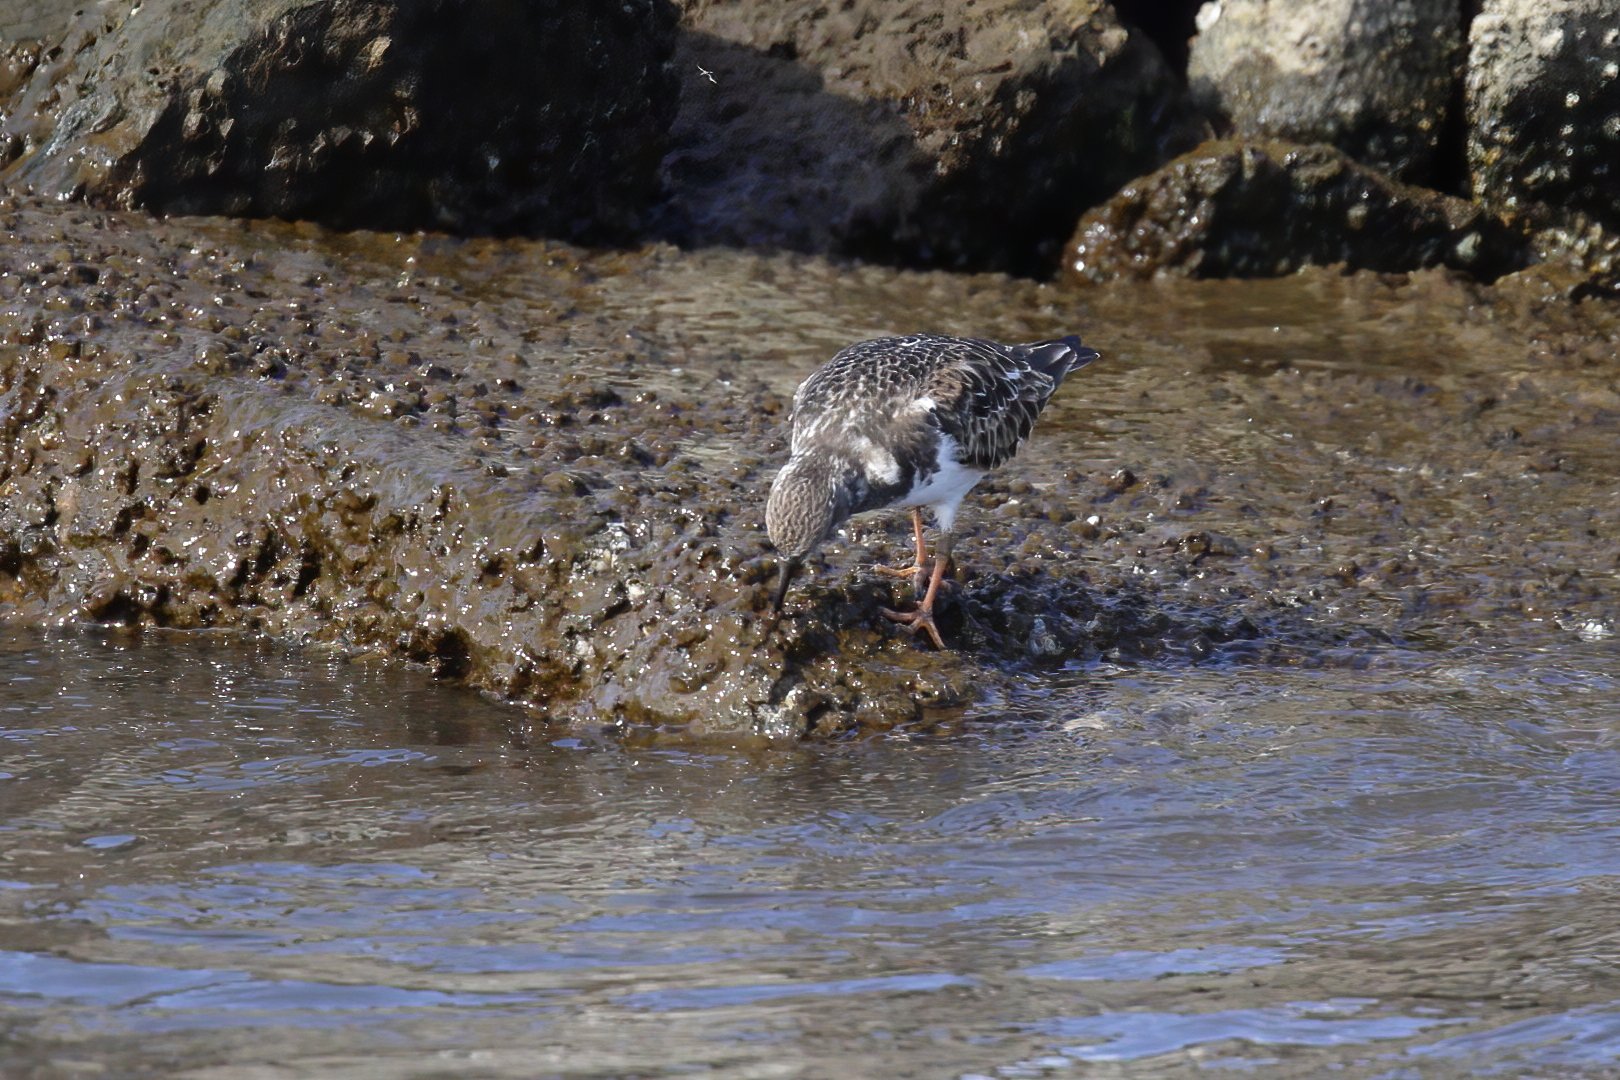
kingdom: Animalia
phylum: Chordata
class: Aves
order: Charadriiformes
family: Scolopacidae
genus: Arenaria
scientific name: Arenaria interpres
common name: Ruddy turnstone
